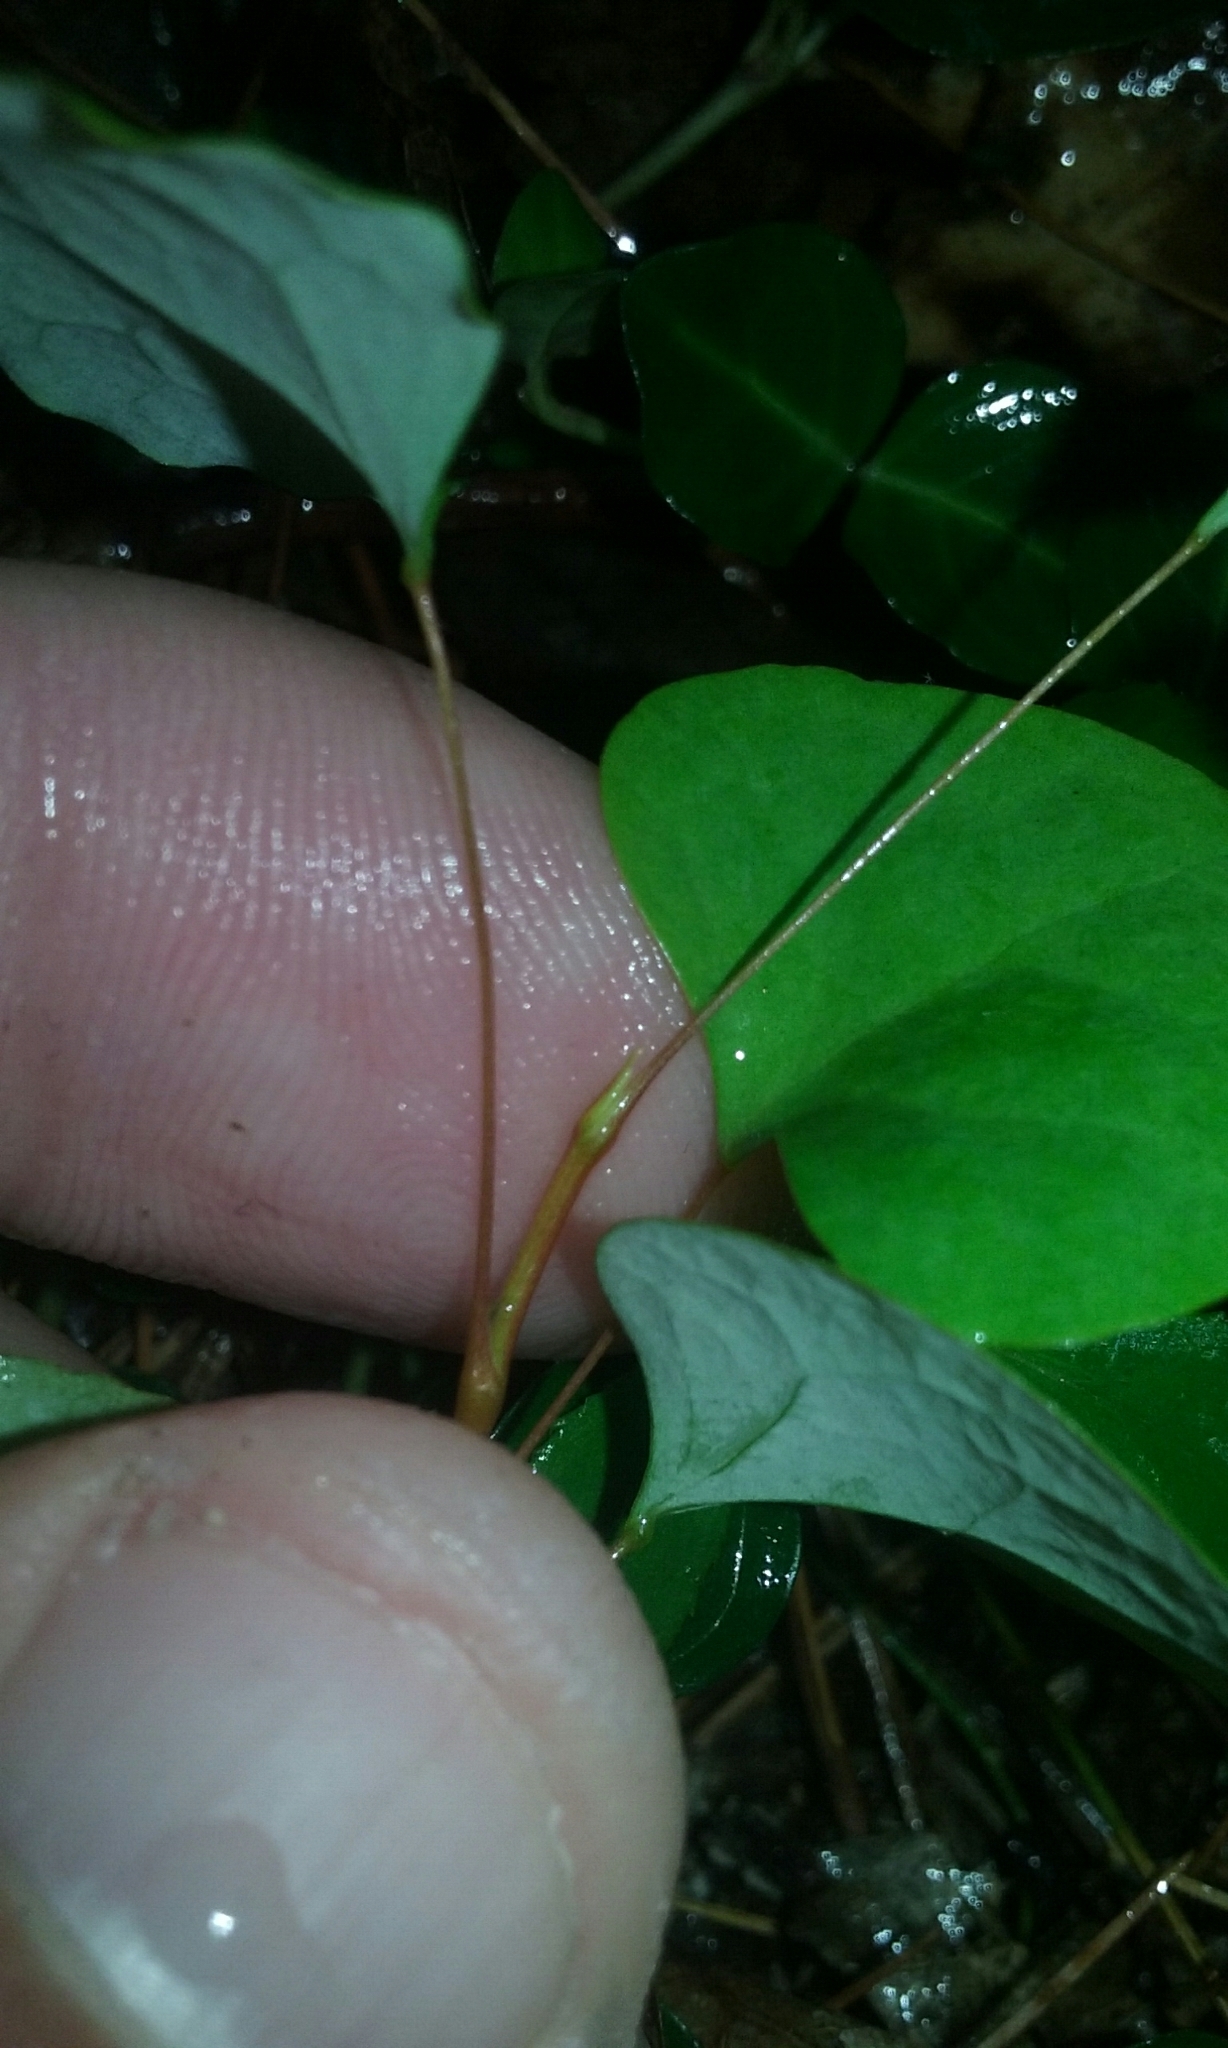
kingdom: Plantae
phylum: Tracheophyta
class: Magnoliopsida
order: Ranunculales
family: Berberidaceae
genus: Berberis
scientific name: Berberis thunbergii
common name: Japanese barberry
